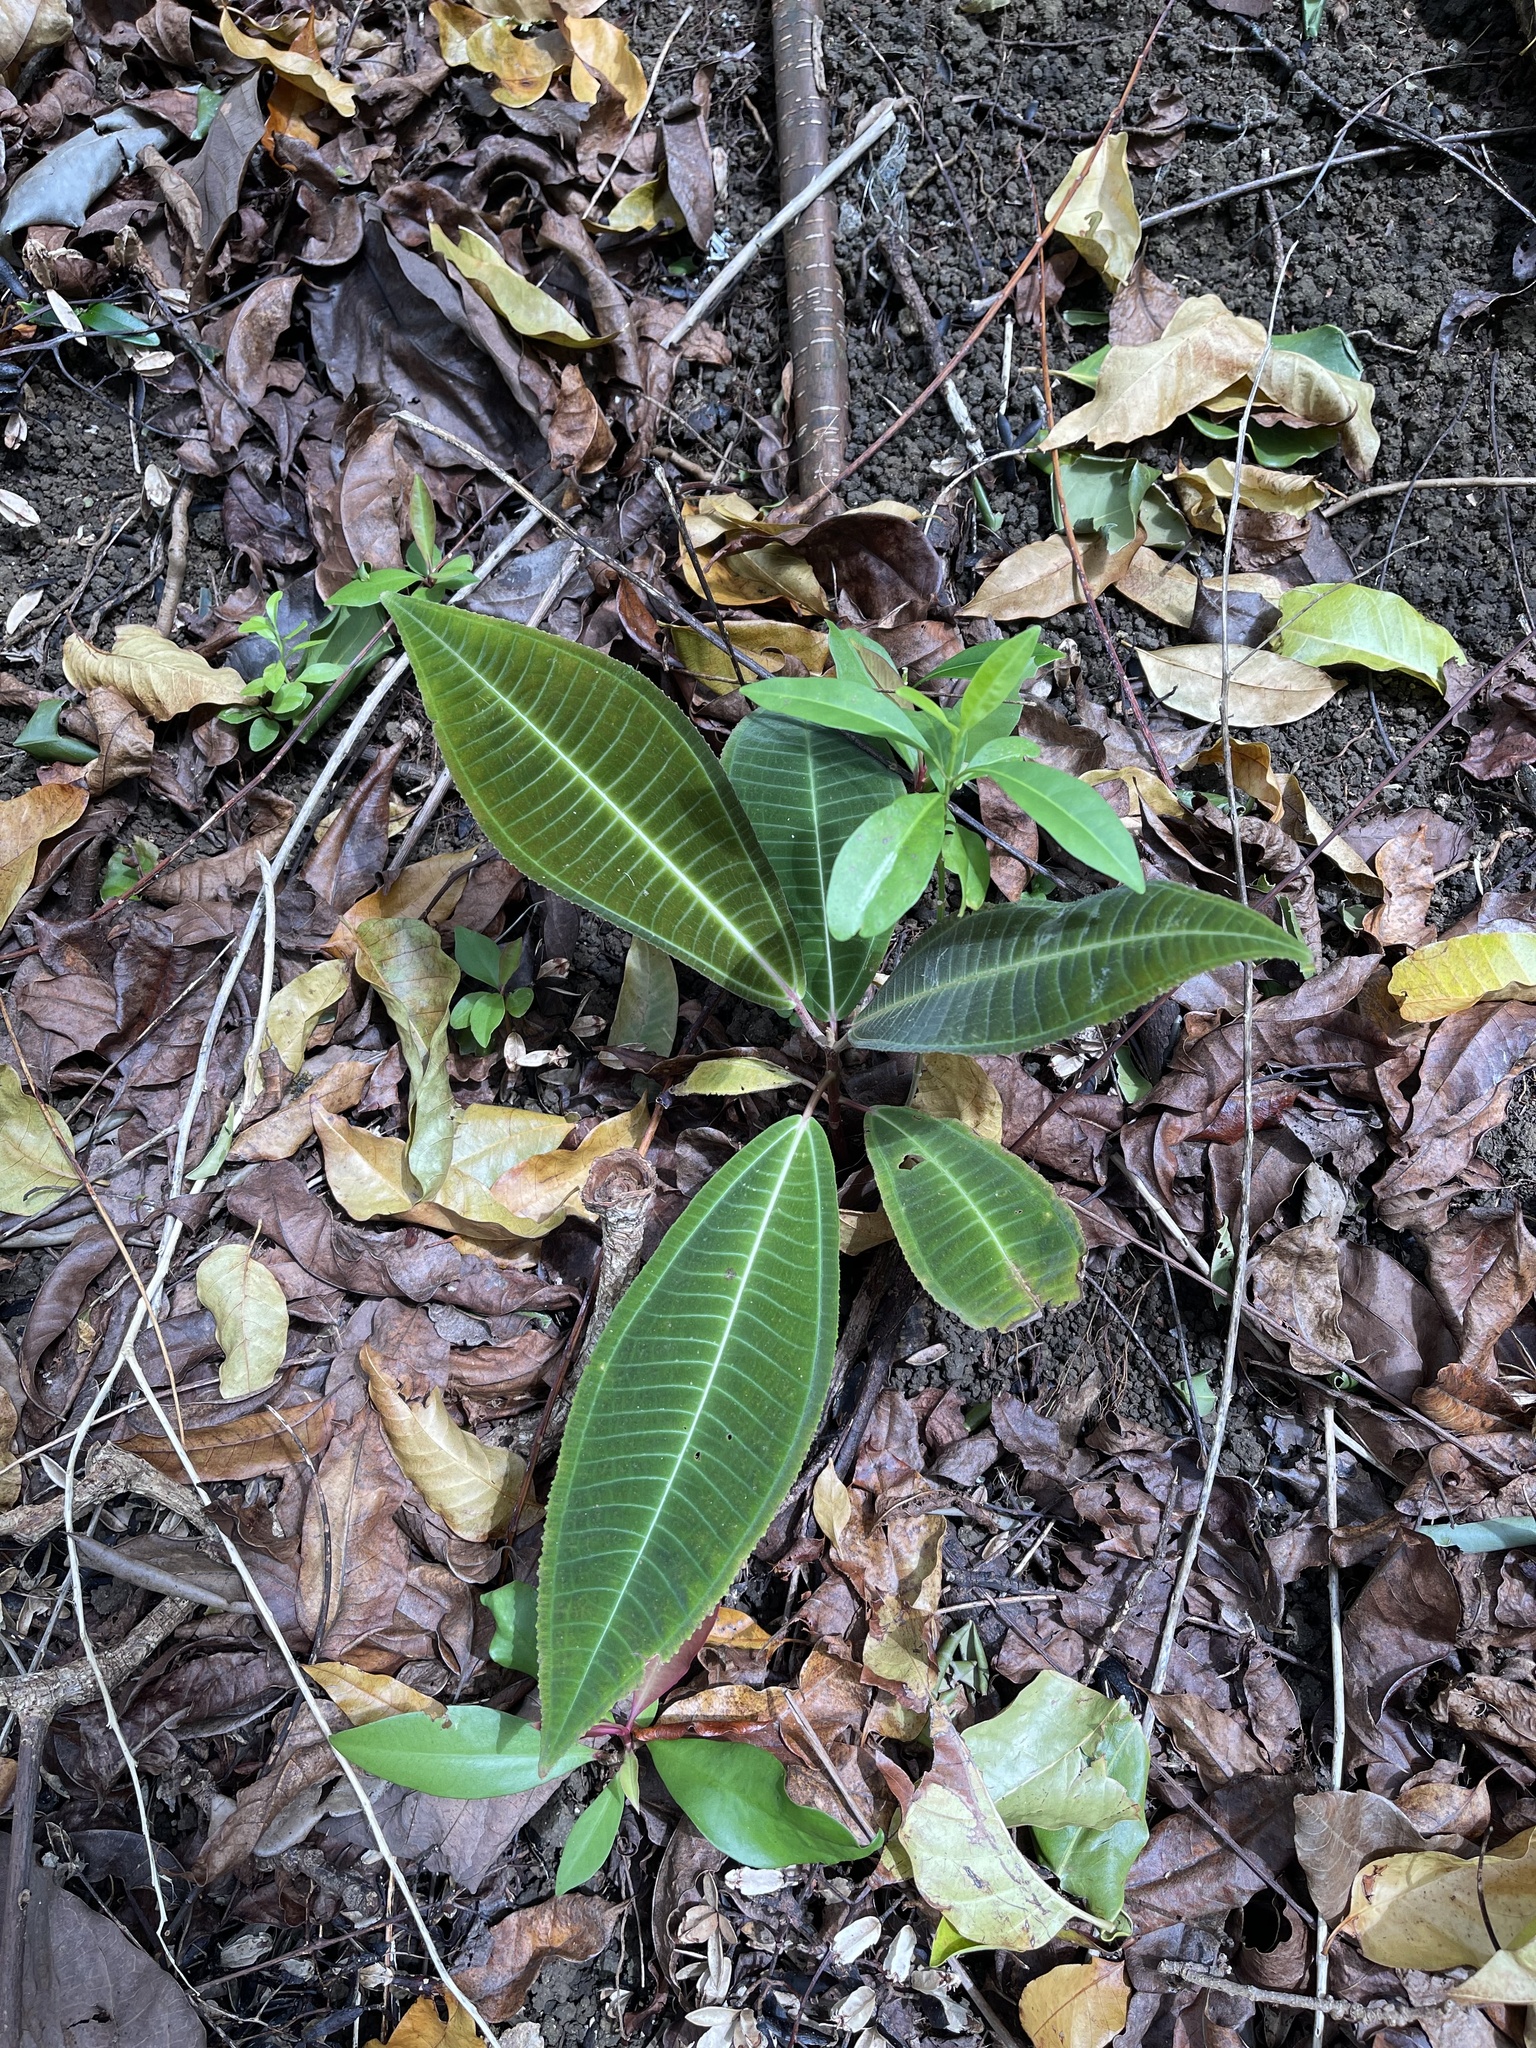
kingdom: Plantae
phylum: Tracheophyta
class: Magnoliopsida
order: Myrtales
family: Melastomataceae
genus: Miconia
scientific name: Miconia calvescens
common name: Purple plague
